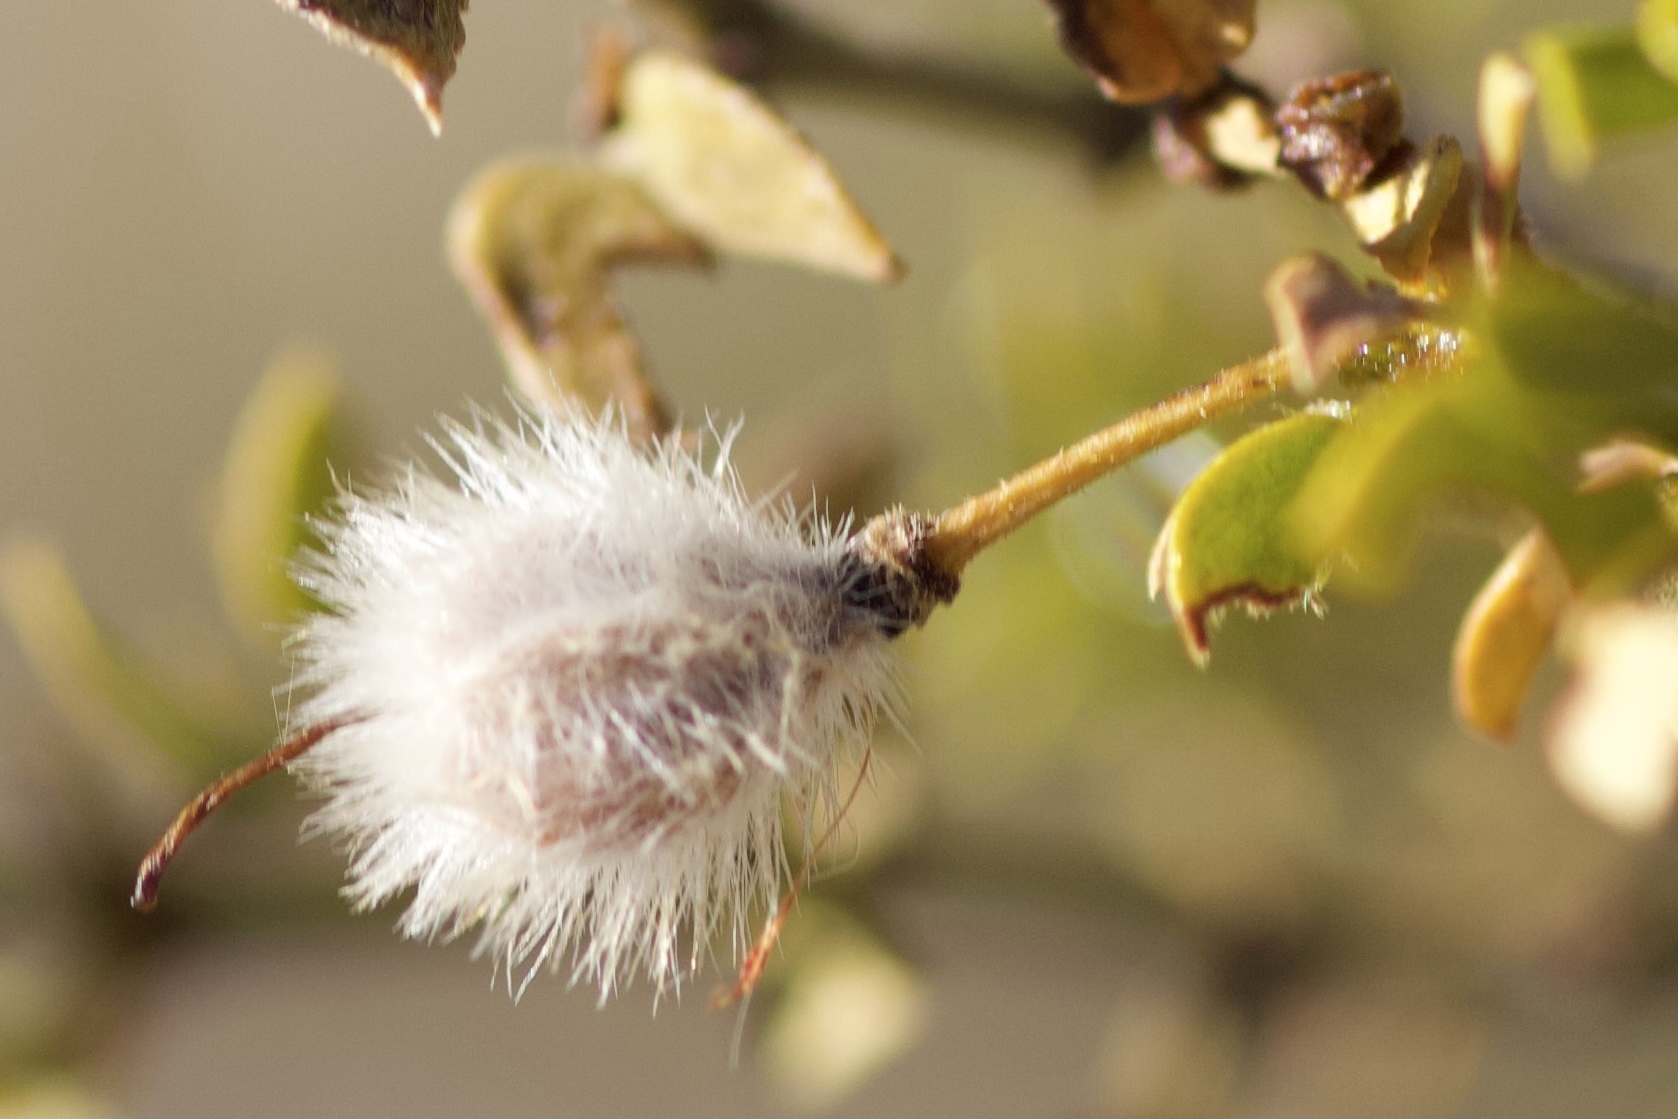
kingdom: Plantae
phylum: Tracheophyta
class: Magnoliopsida
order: Zygophyllales
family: Zygophyllaceae
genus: Larrea
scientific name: Larrea tridentata
